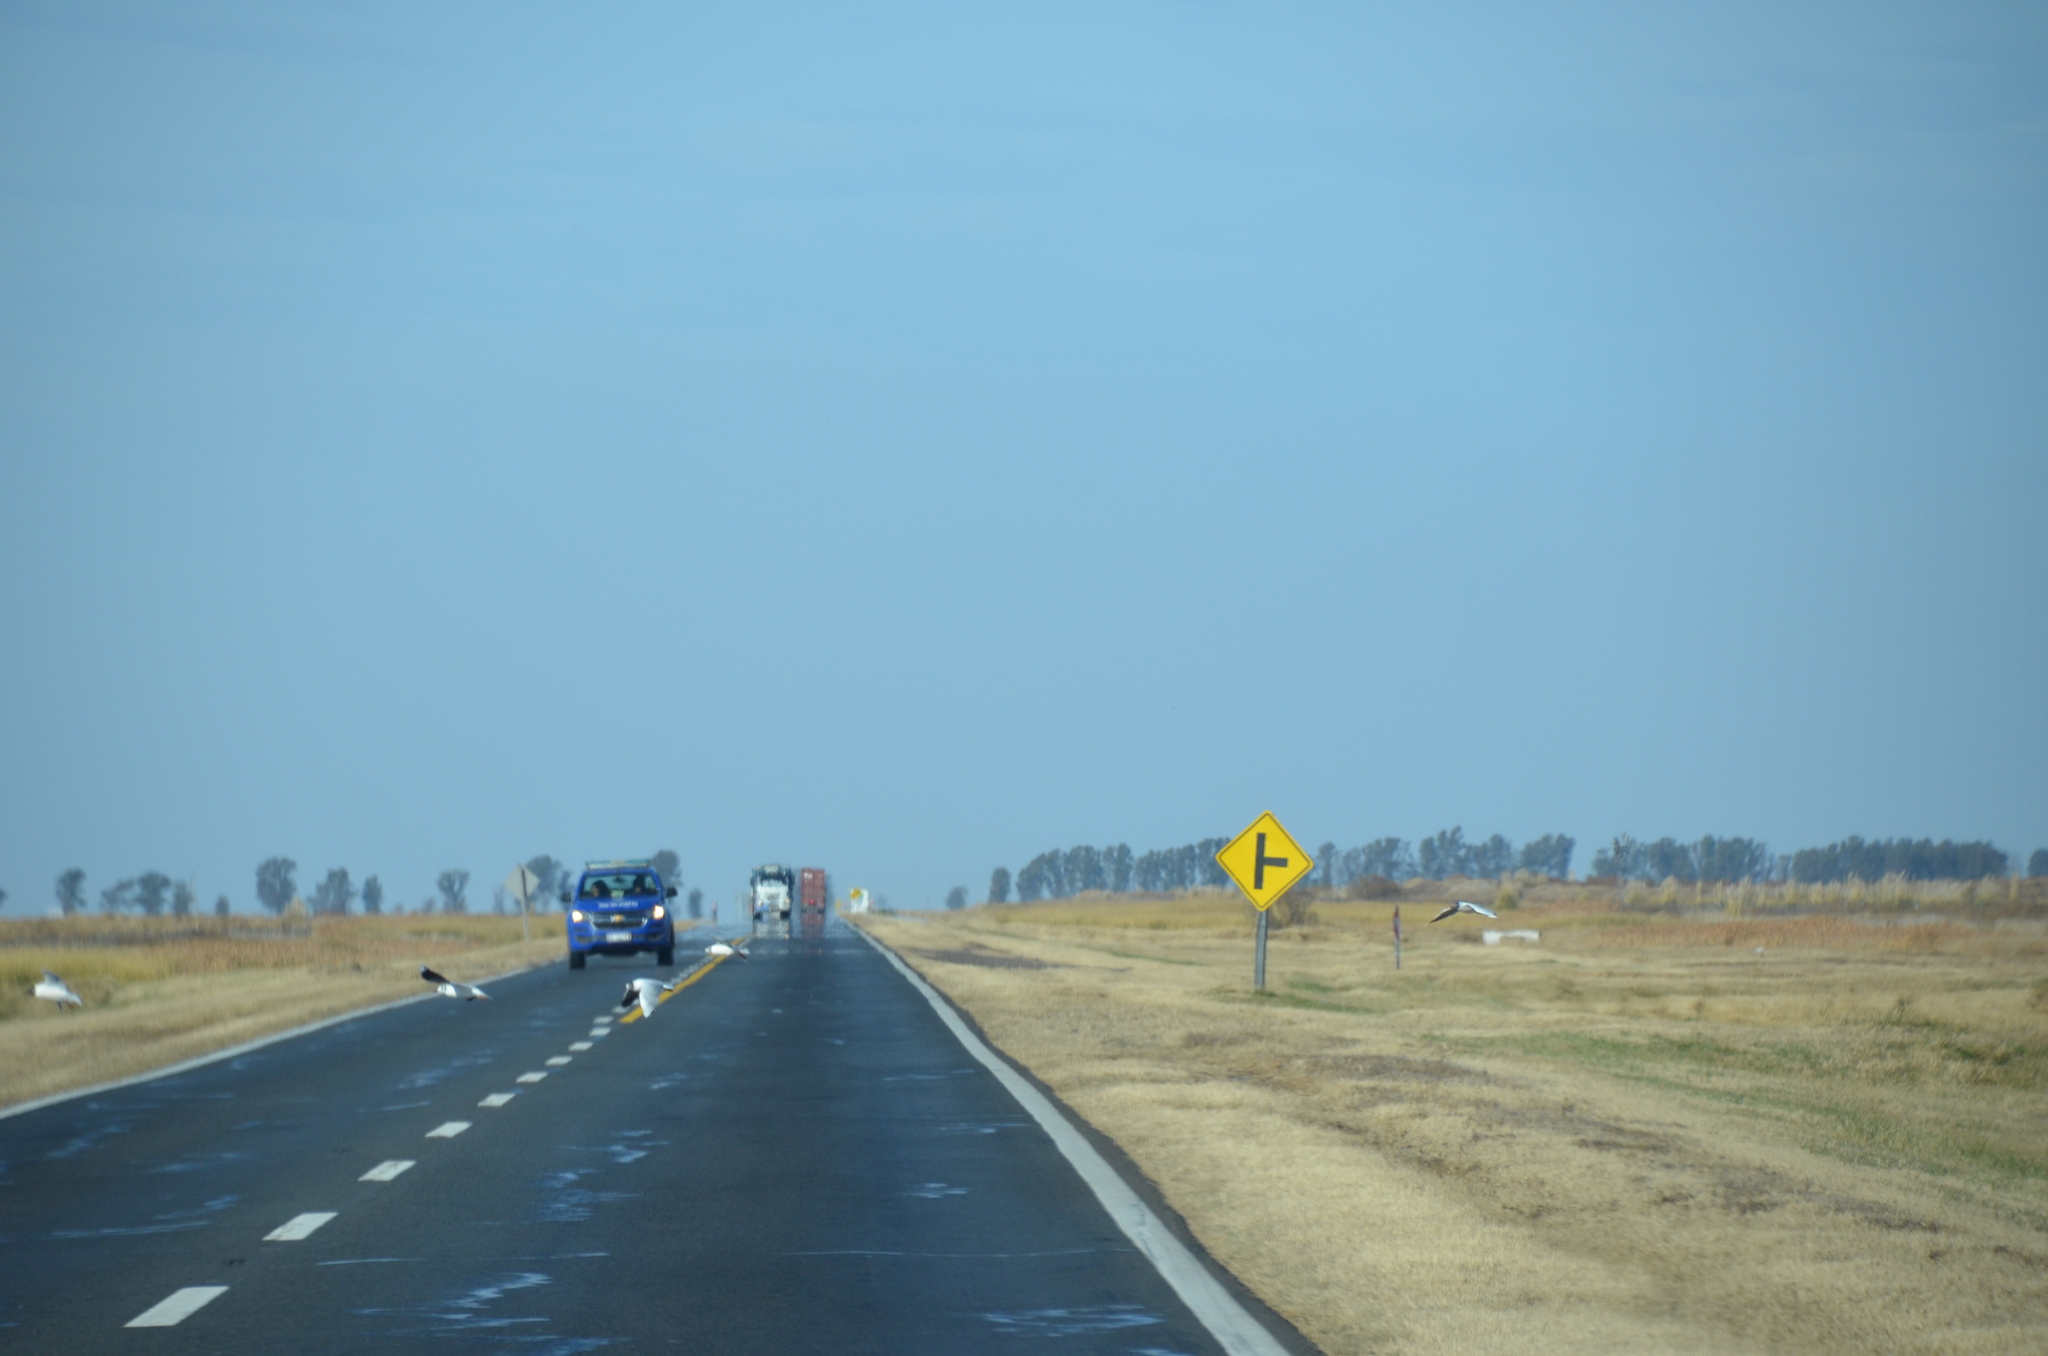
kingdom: Animalia
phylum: Chordata
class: Aves
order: Charadriiformes
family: Laridae
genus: Chroicocephalus
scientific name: Chroicocephalus maculipennis
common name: Brown-hooded gull
